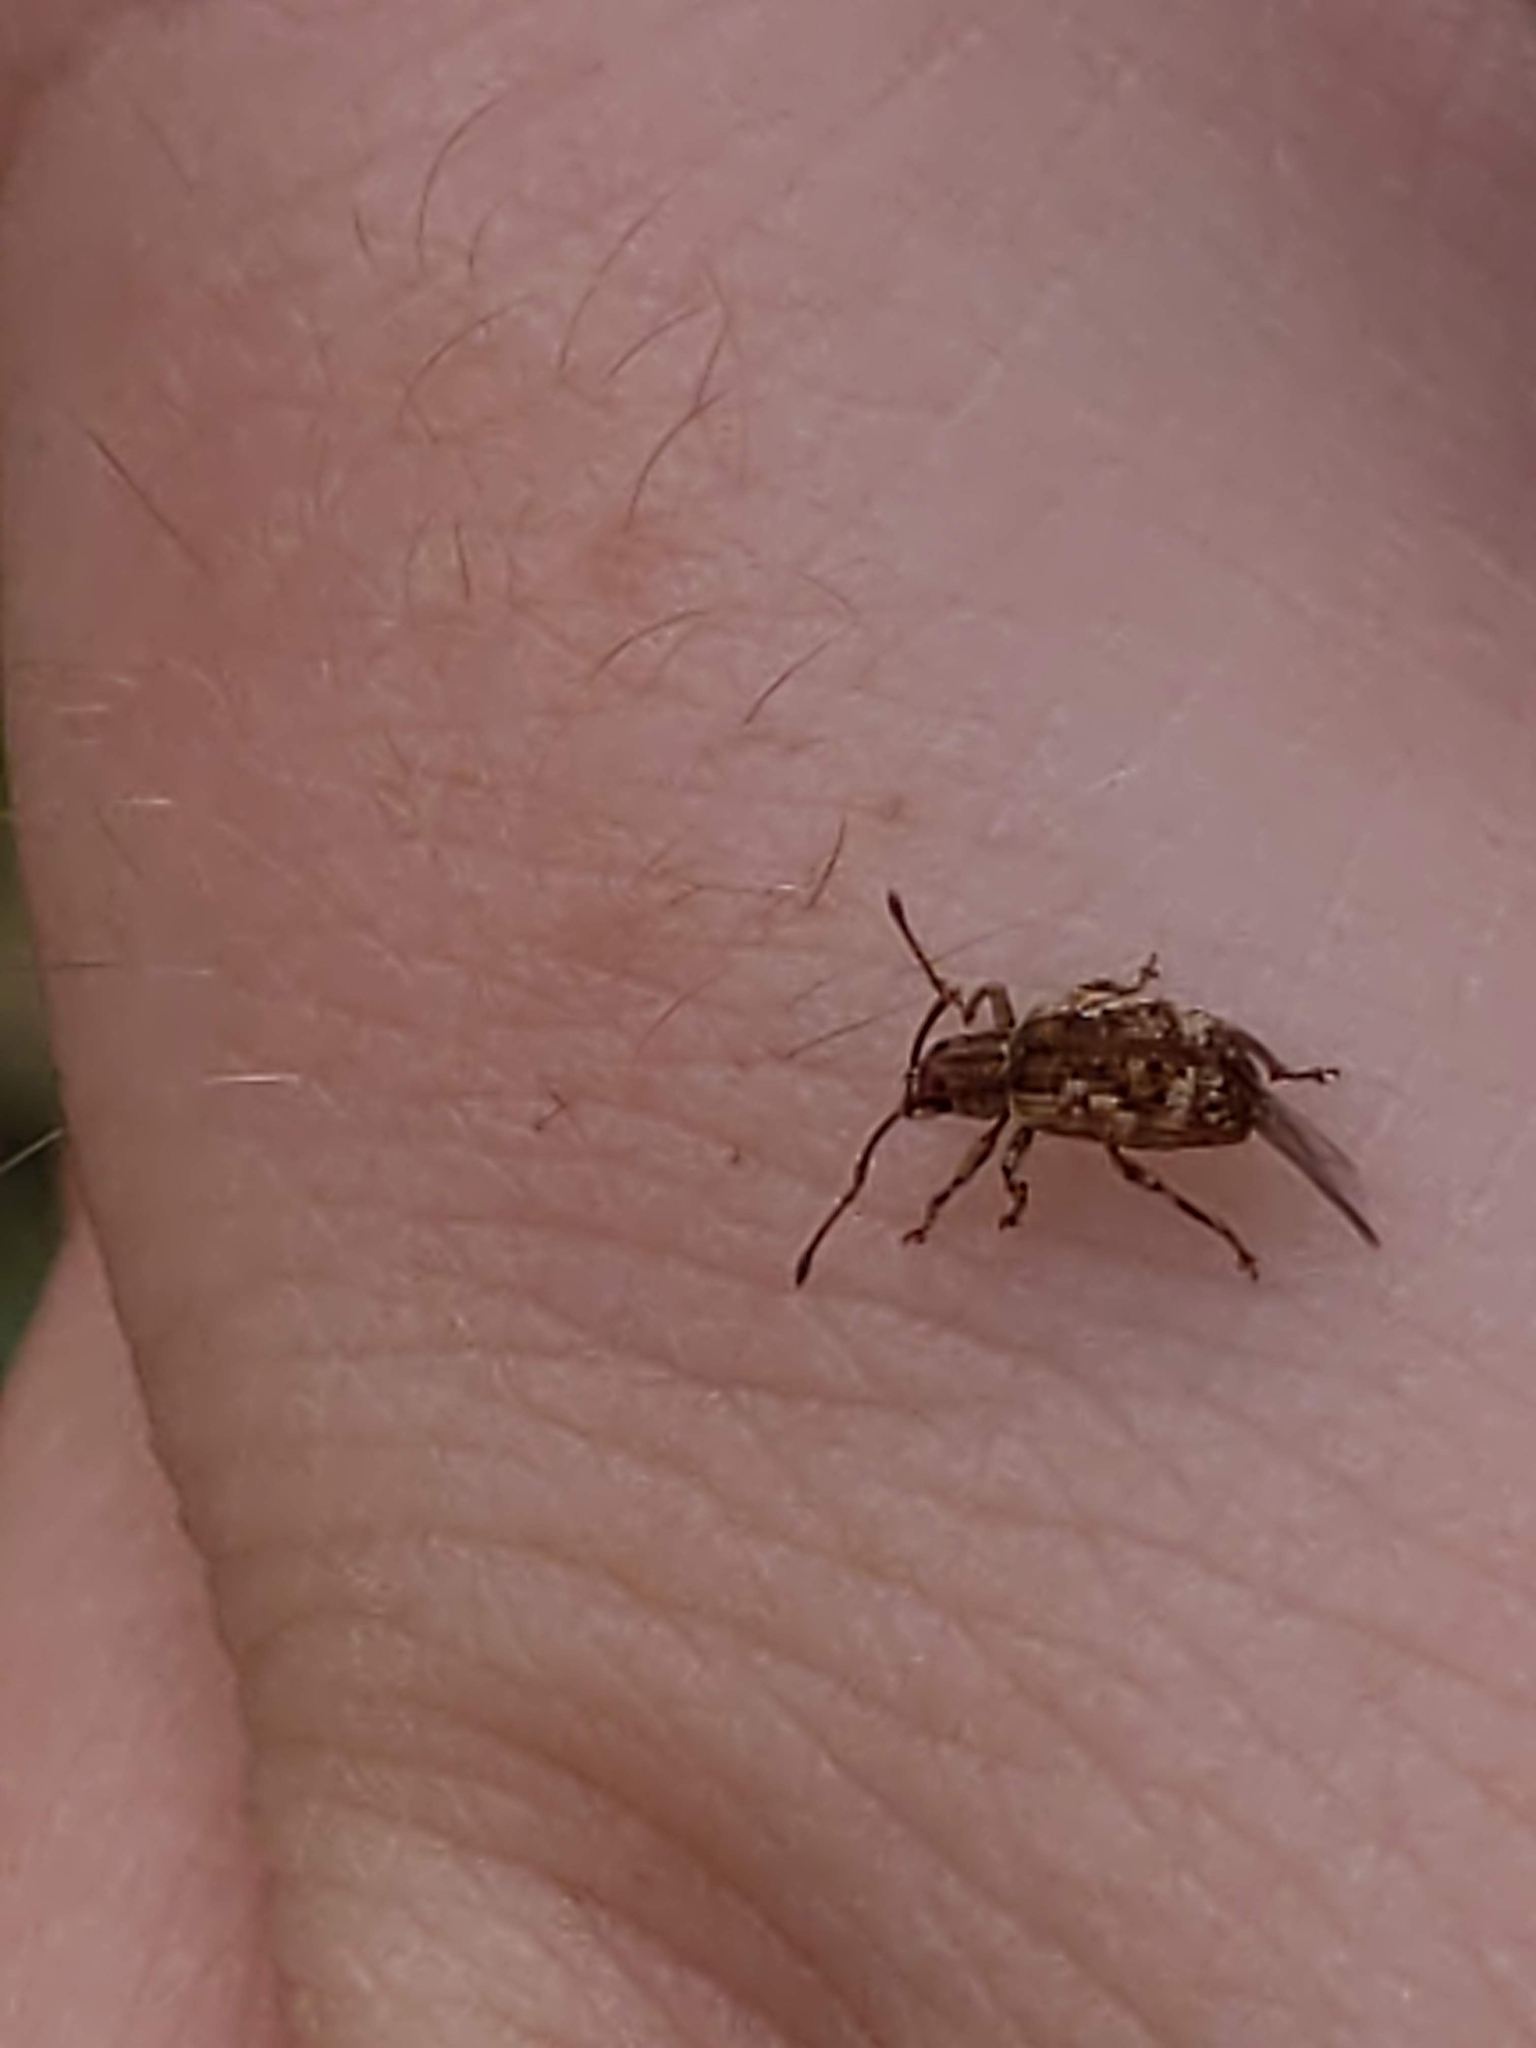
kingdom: Animalia
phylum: Arthropoda
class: Insecta
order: Coleoptera
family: Curculionidae
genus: Pseudoedophrys
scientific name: Pseudoedophrys hilleri
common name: Weevil
